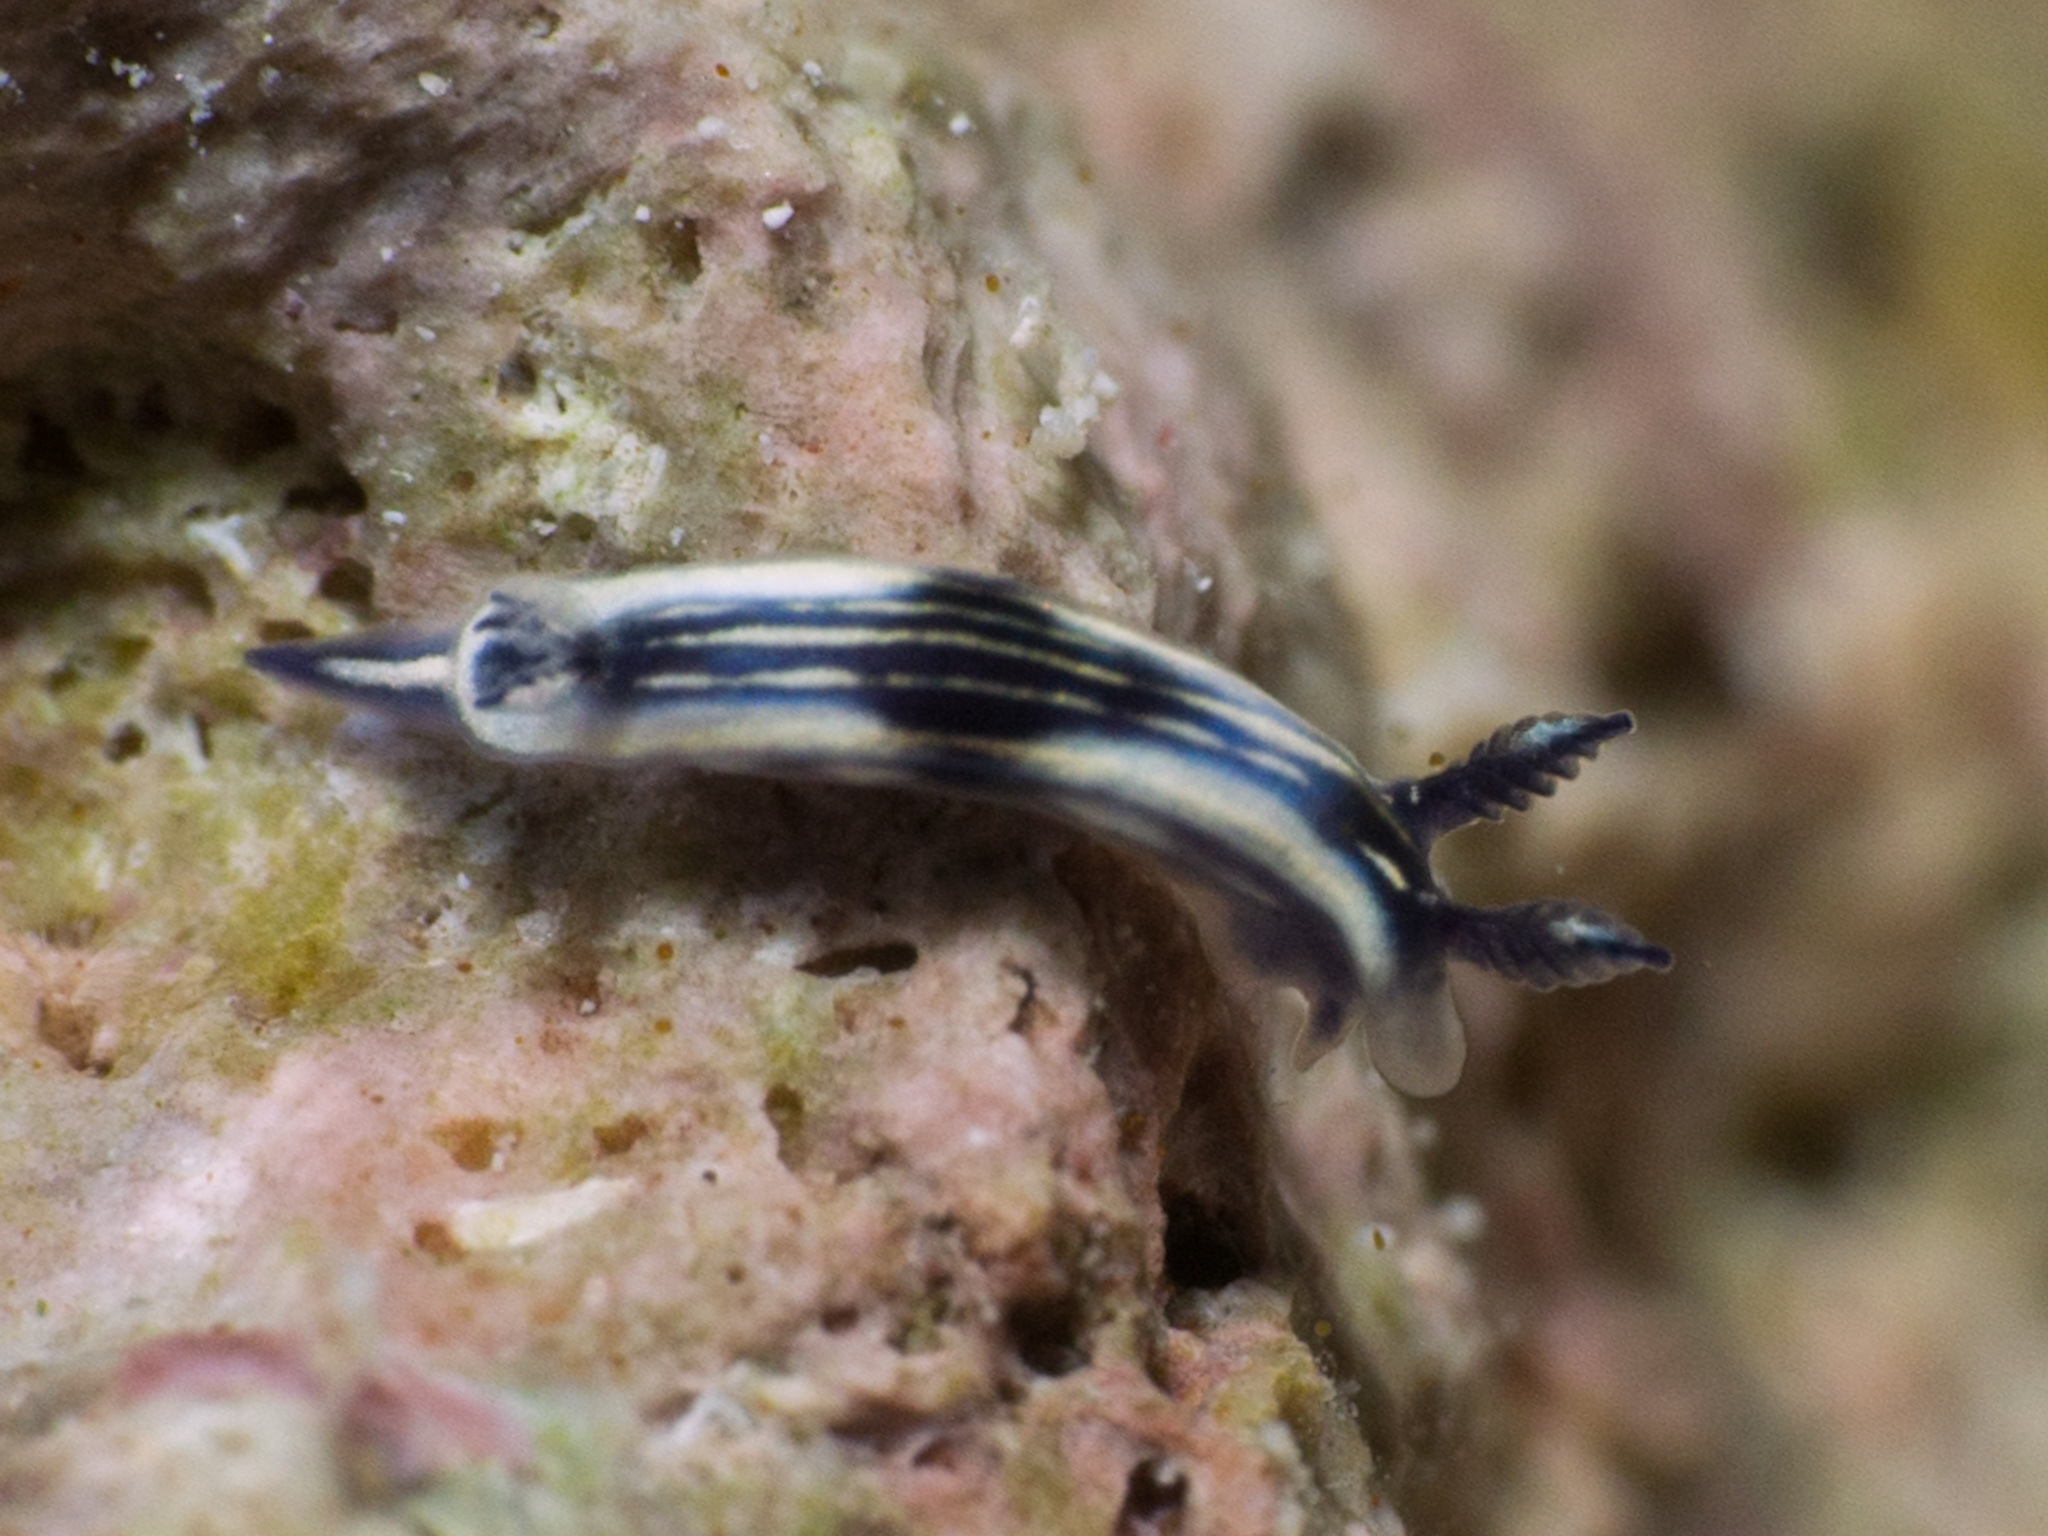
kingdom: Animalia
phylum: Mollusca
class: Gastropoda
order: Nudibranchia
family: Chromodorididae
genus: Felimare
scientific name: Felimare ruthae
